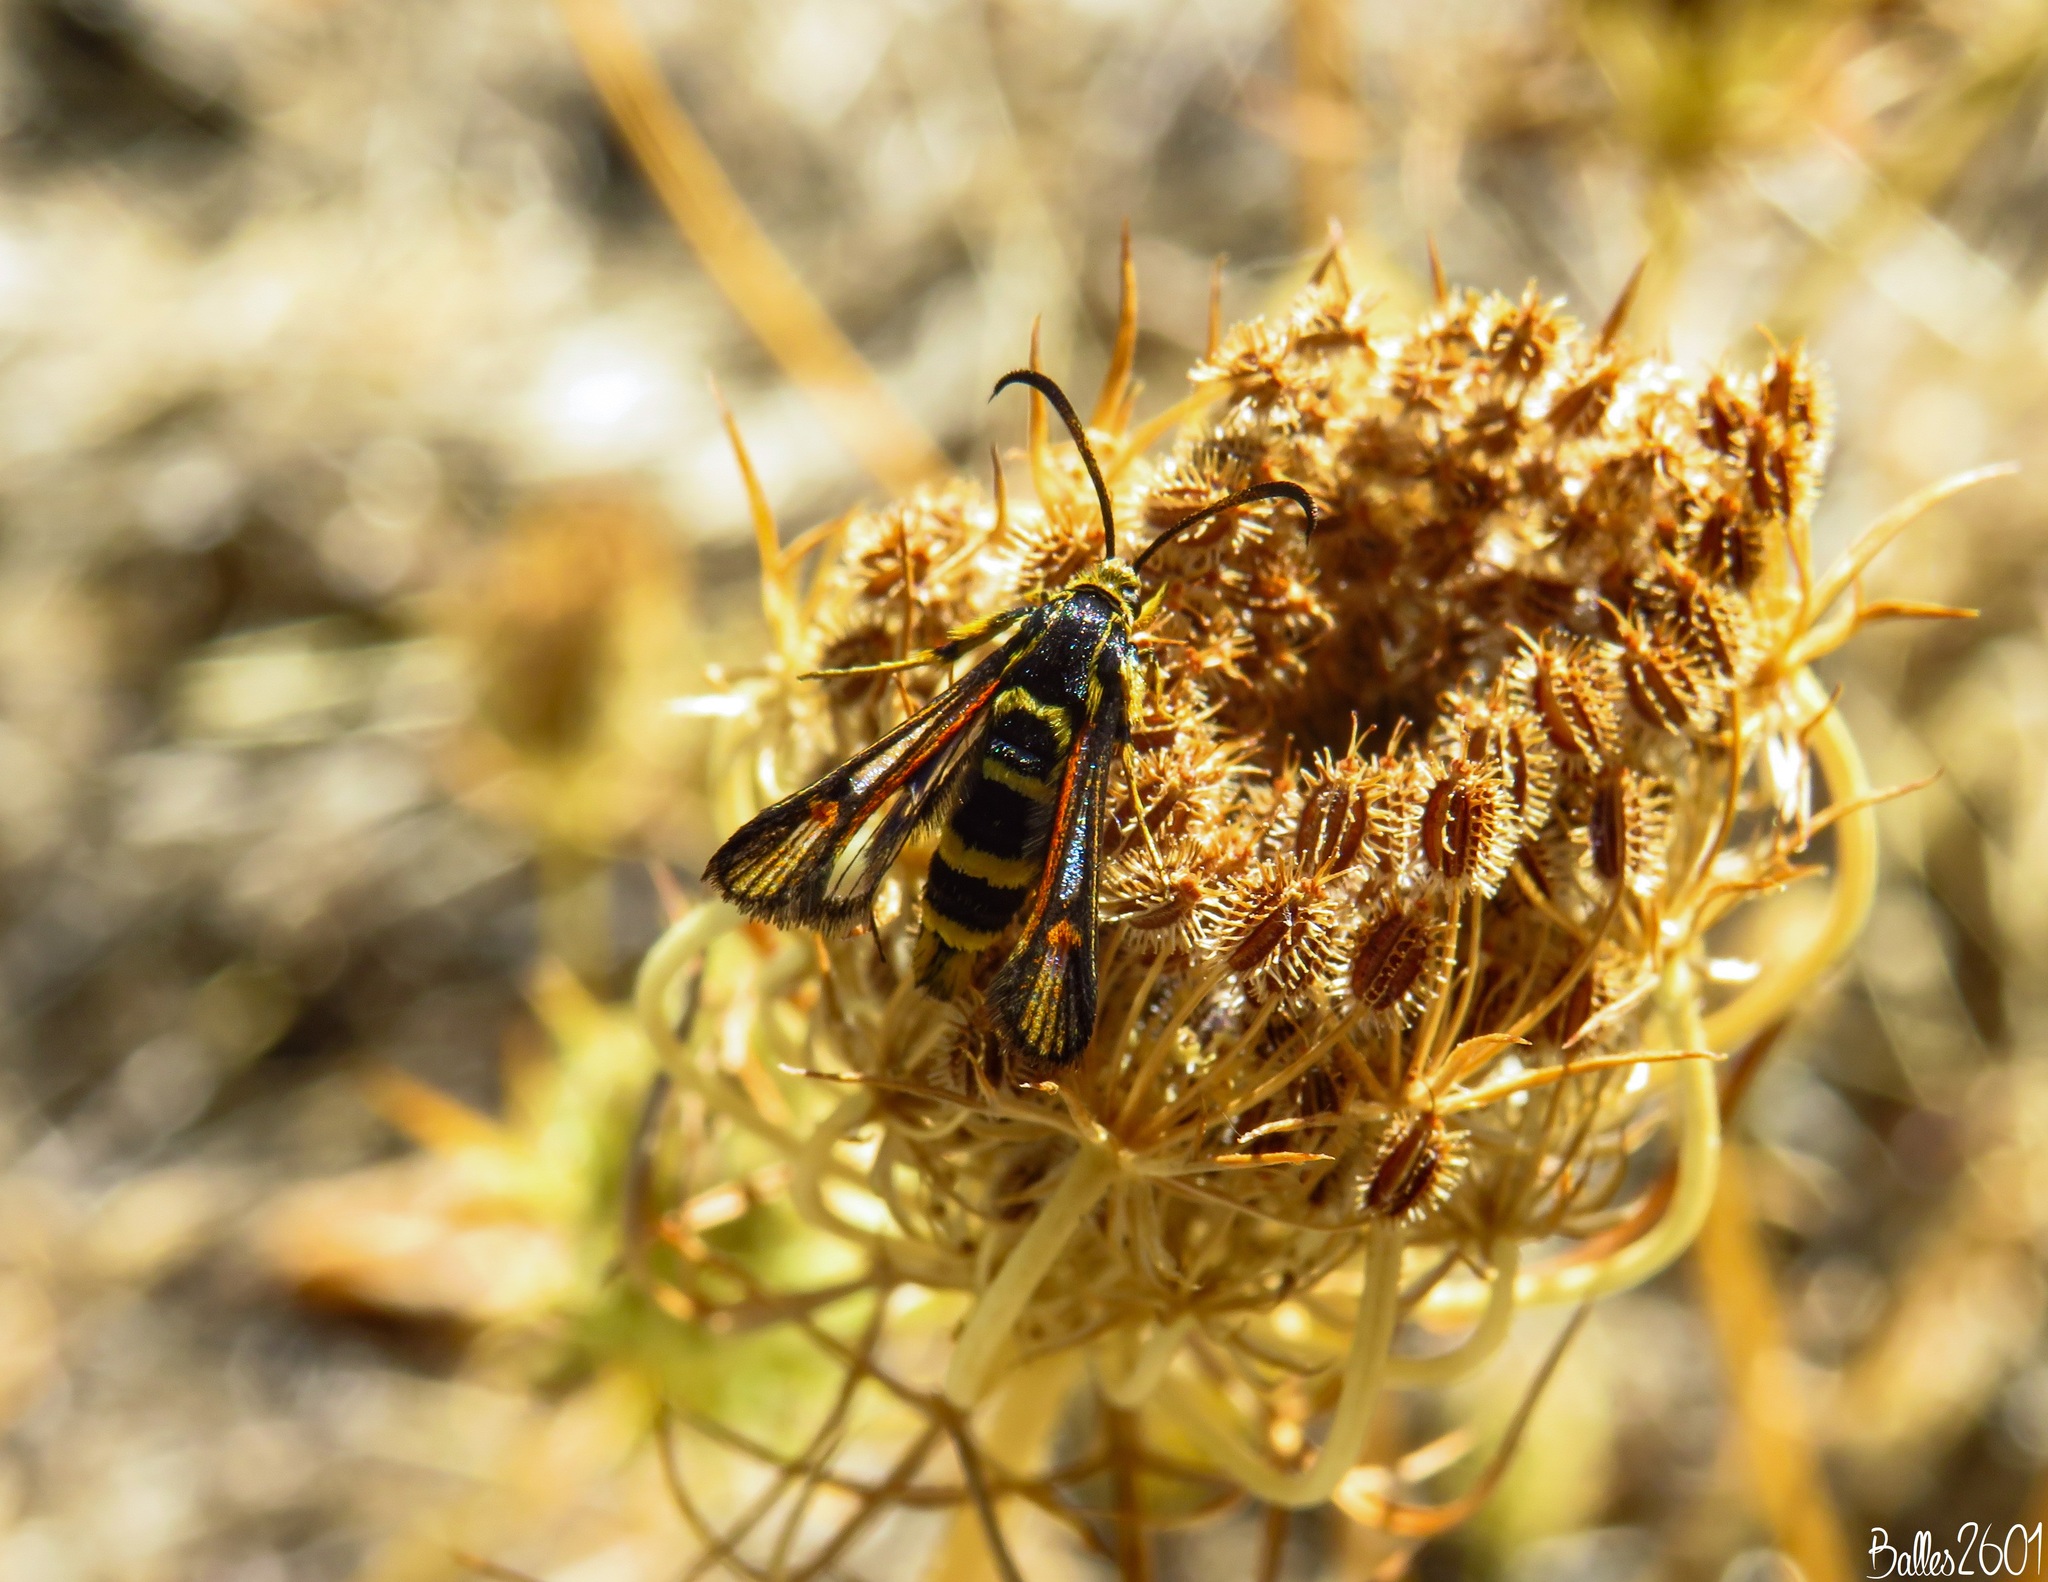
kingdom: Animalia
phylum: Arthropoda
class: Insecta
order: Lepidoptera
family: Sesiidae
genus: Bembecia
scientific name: Bembecia astragali
